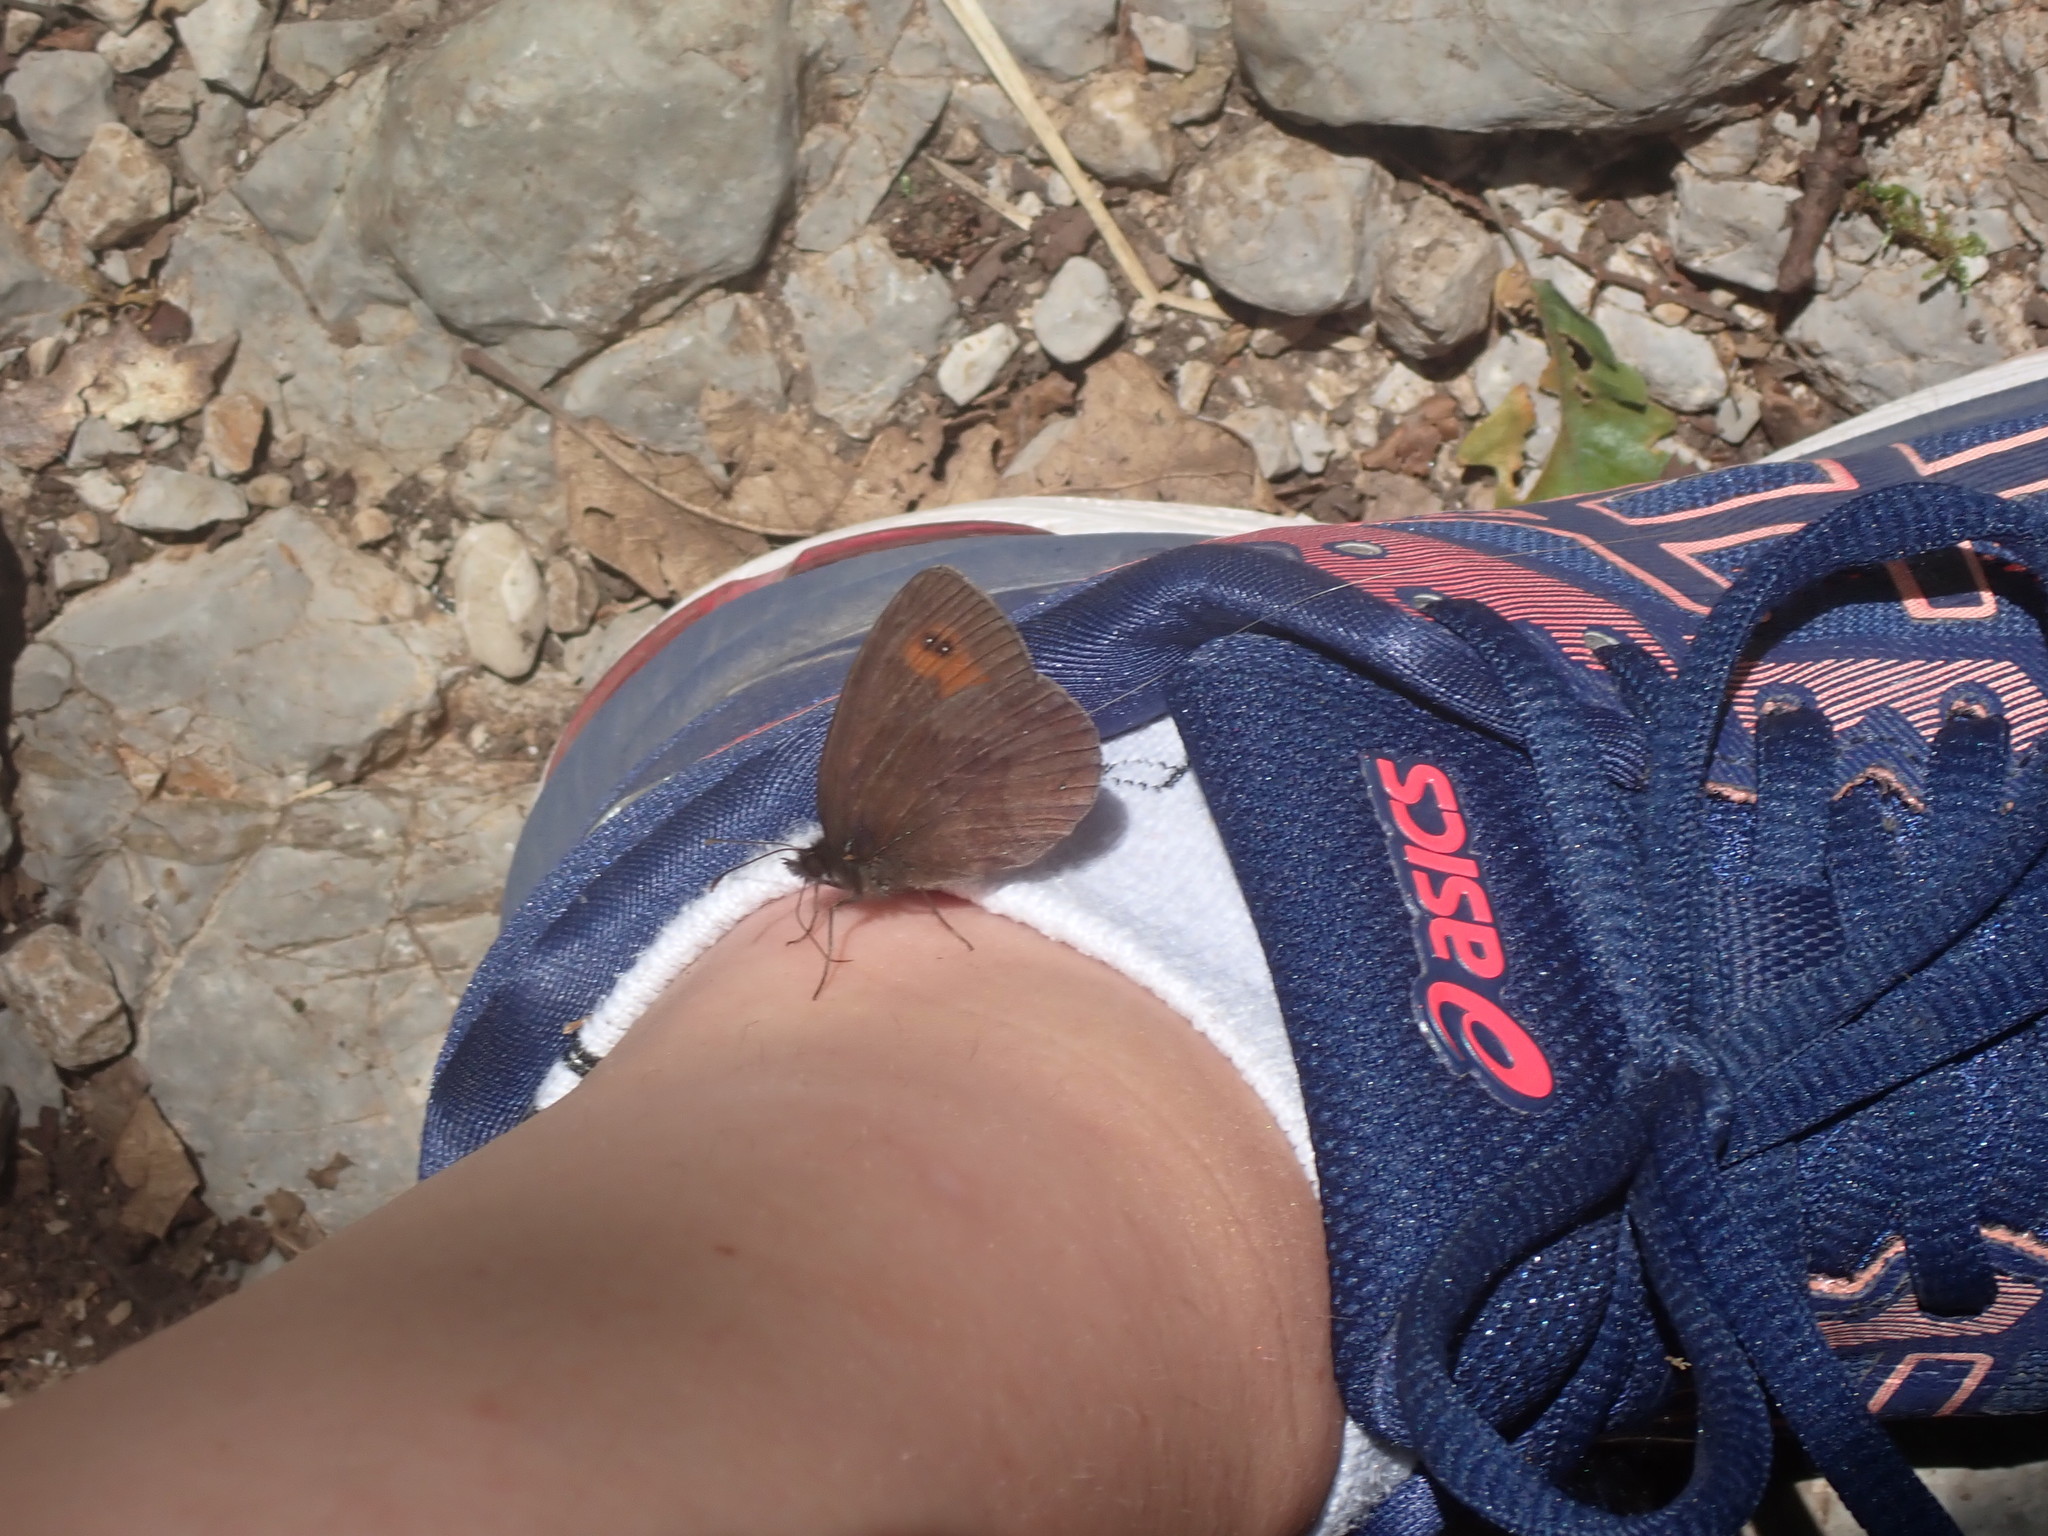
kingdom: Animalia
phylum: Arthropoda
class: Insecta
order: Lepidoptera
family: Nymphalidae
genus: Erebia
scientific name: Erebia aethiops
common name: Scotch argus
